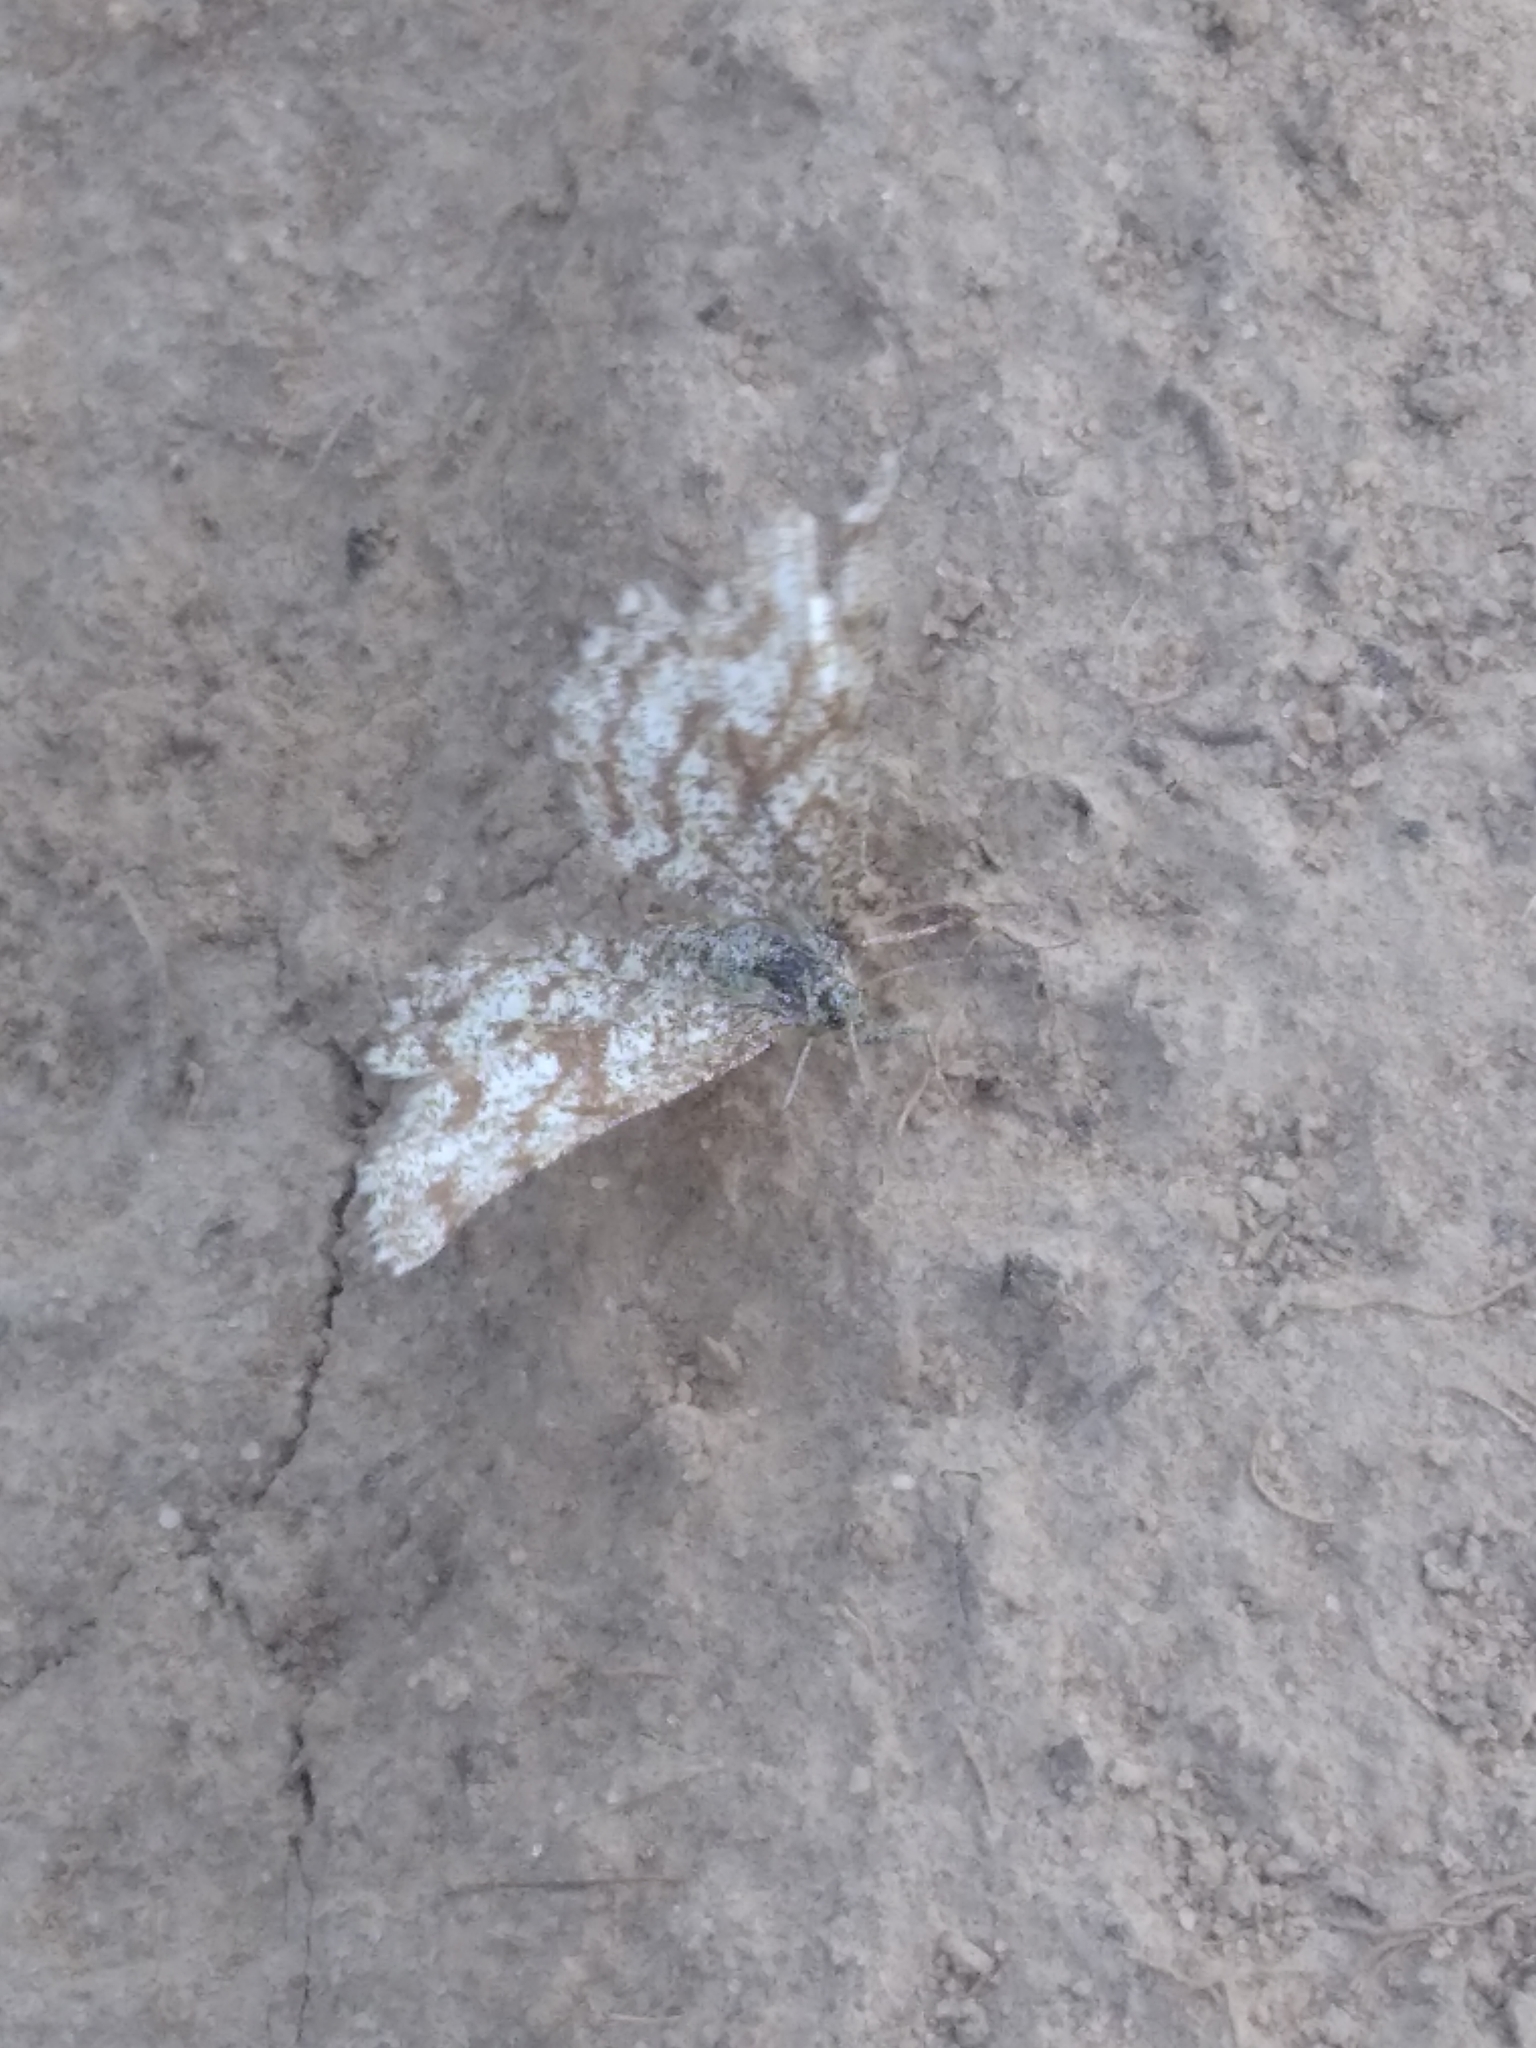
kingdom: Animalia
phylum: Arthropoda
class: Insecta
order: Lepidoptera
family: Geometridae
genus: Ematurga
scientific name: Ematurga atomaria
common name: Common heath
